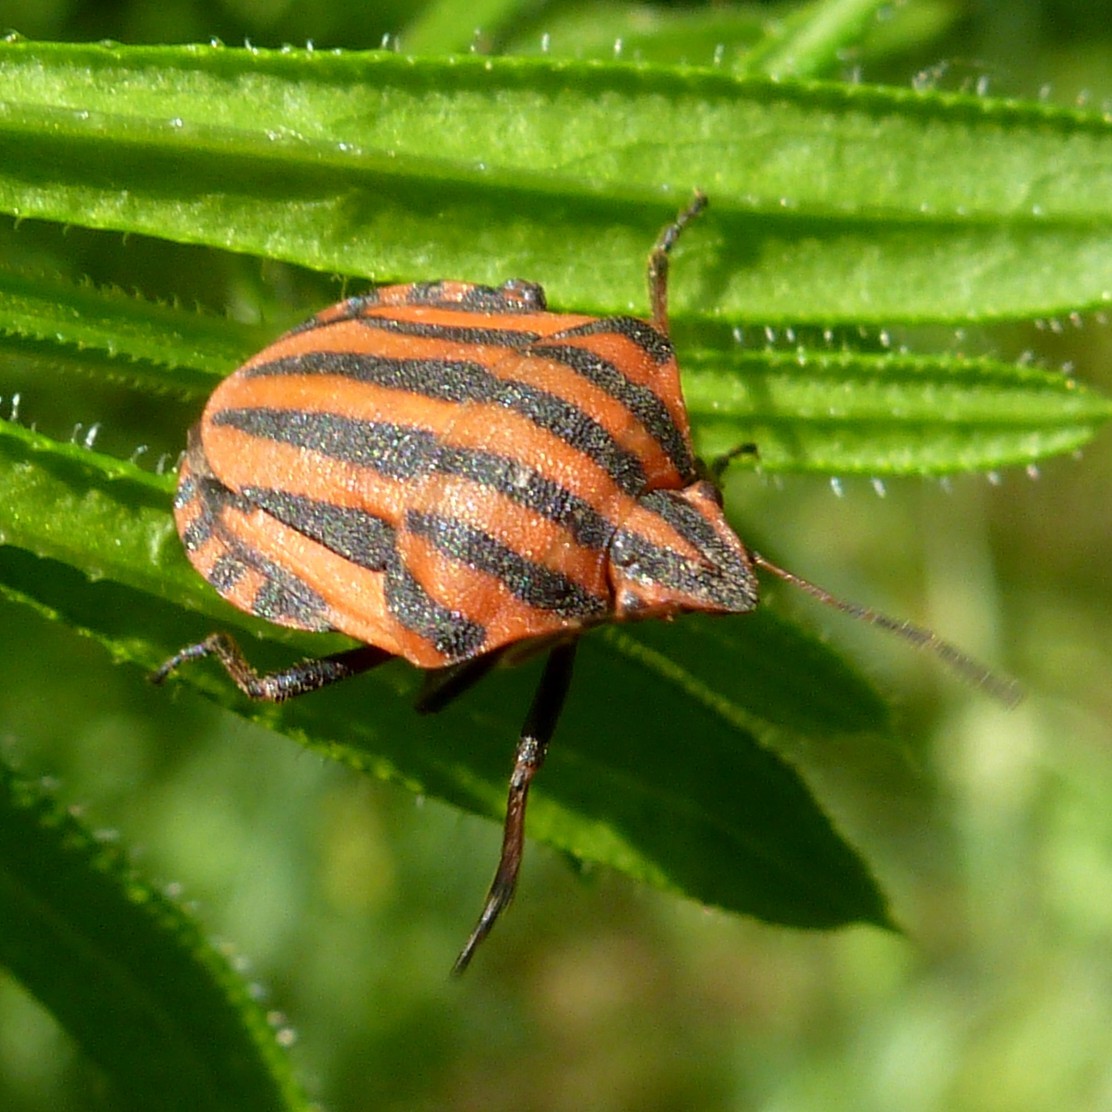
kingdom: Animalia
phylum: Arthropoda
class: Insecta
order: Hemiptera
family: Pentatomidae
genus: Graphosoma
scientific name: Graphosoma italicum
